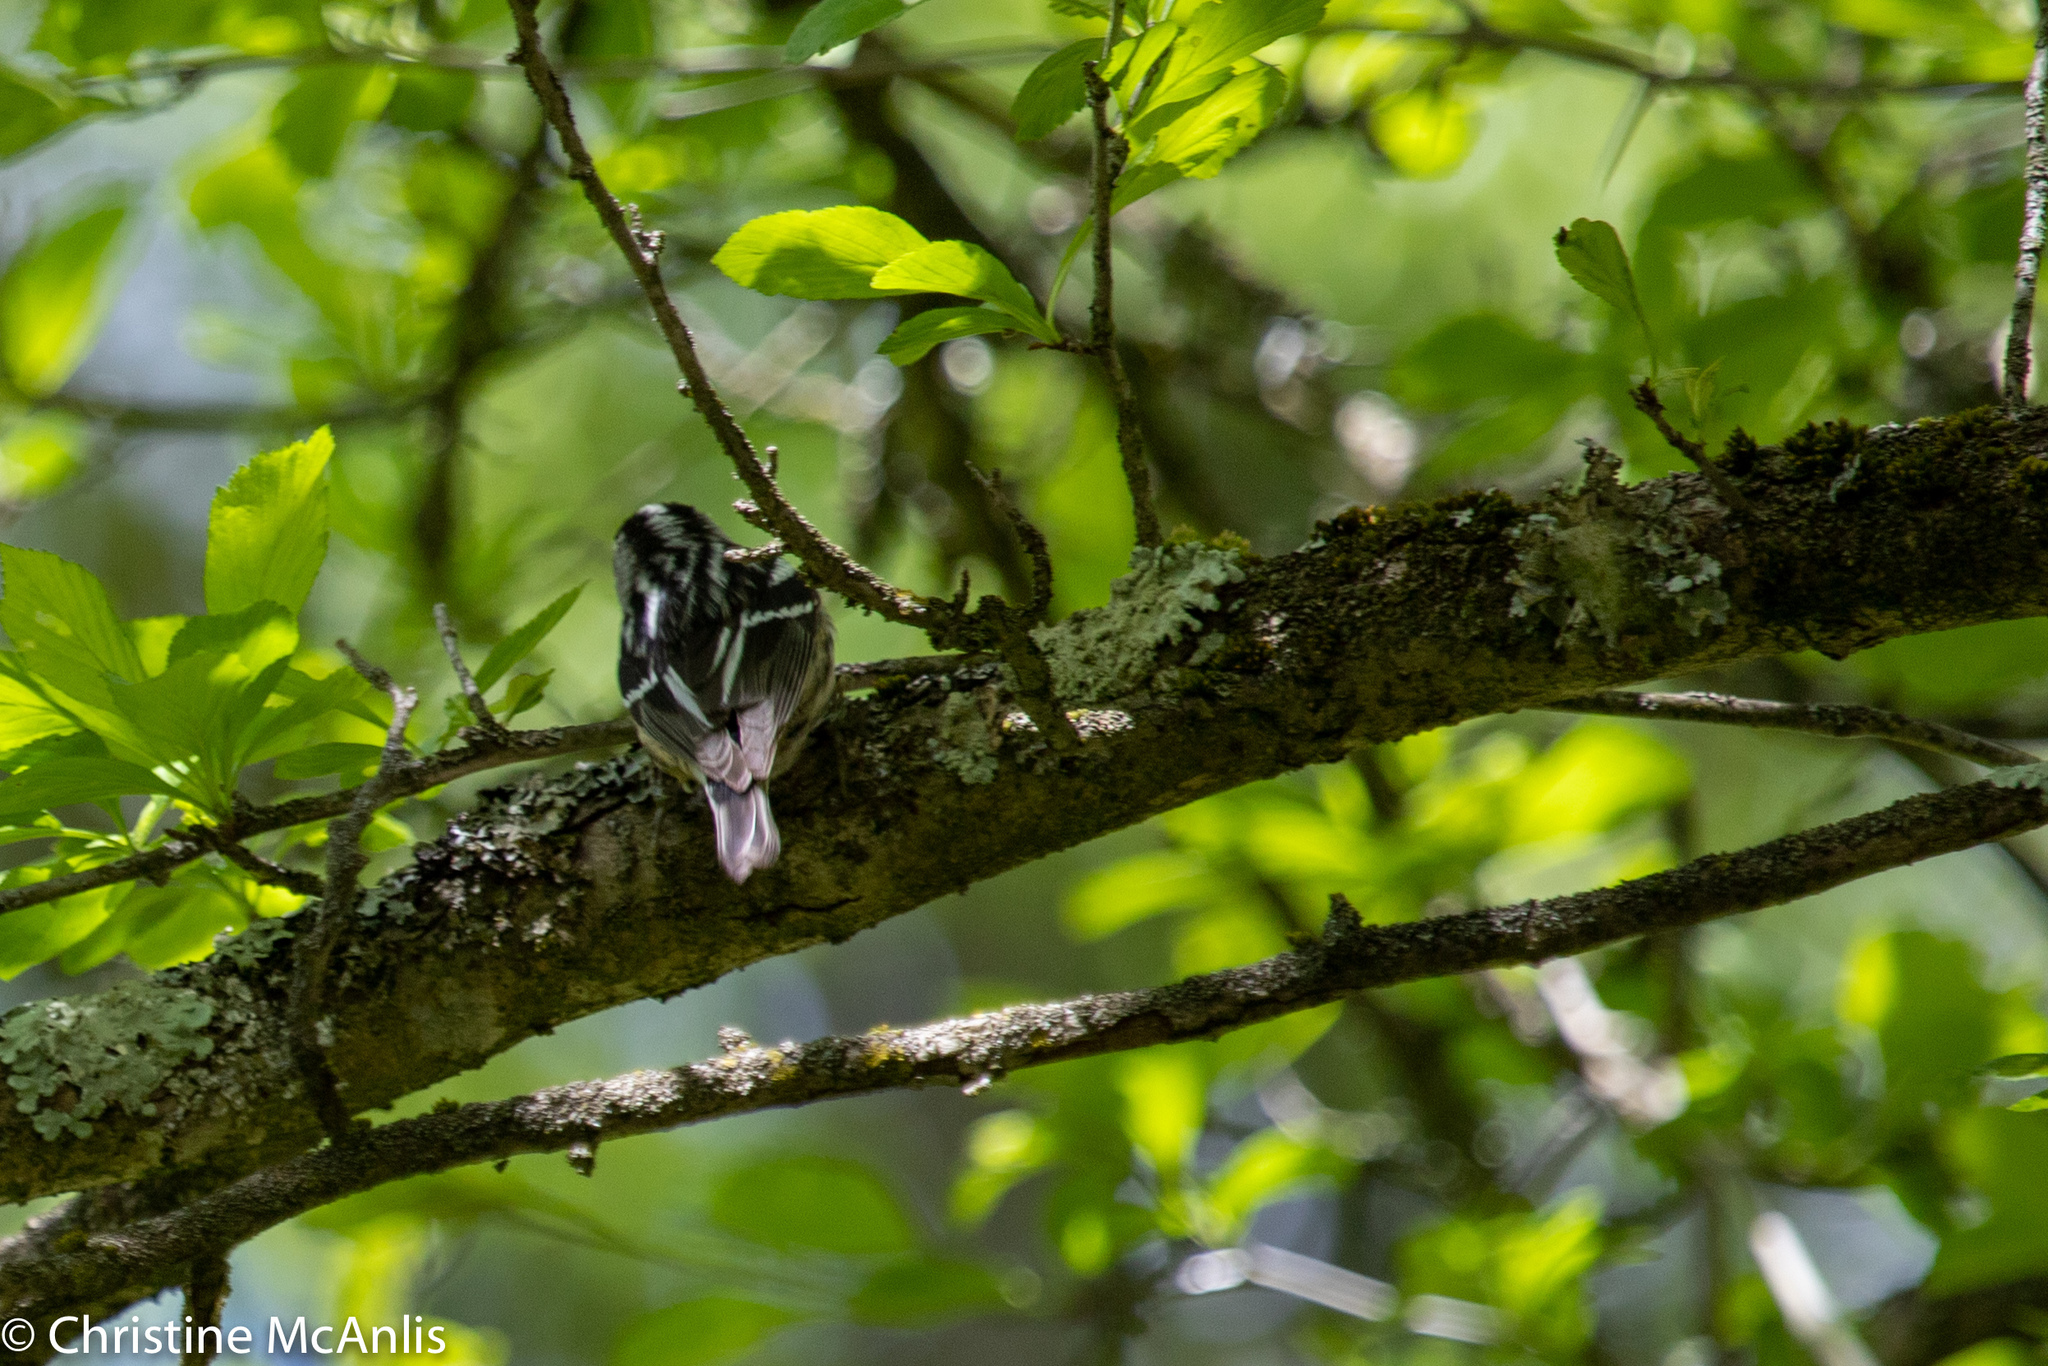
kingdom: Animalia
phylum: Chordata
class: Aves
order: Passeriformes
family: Parulidae
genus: Mniotilta
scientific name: Mniotilta varia
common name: Black-and-white warbler
